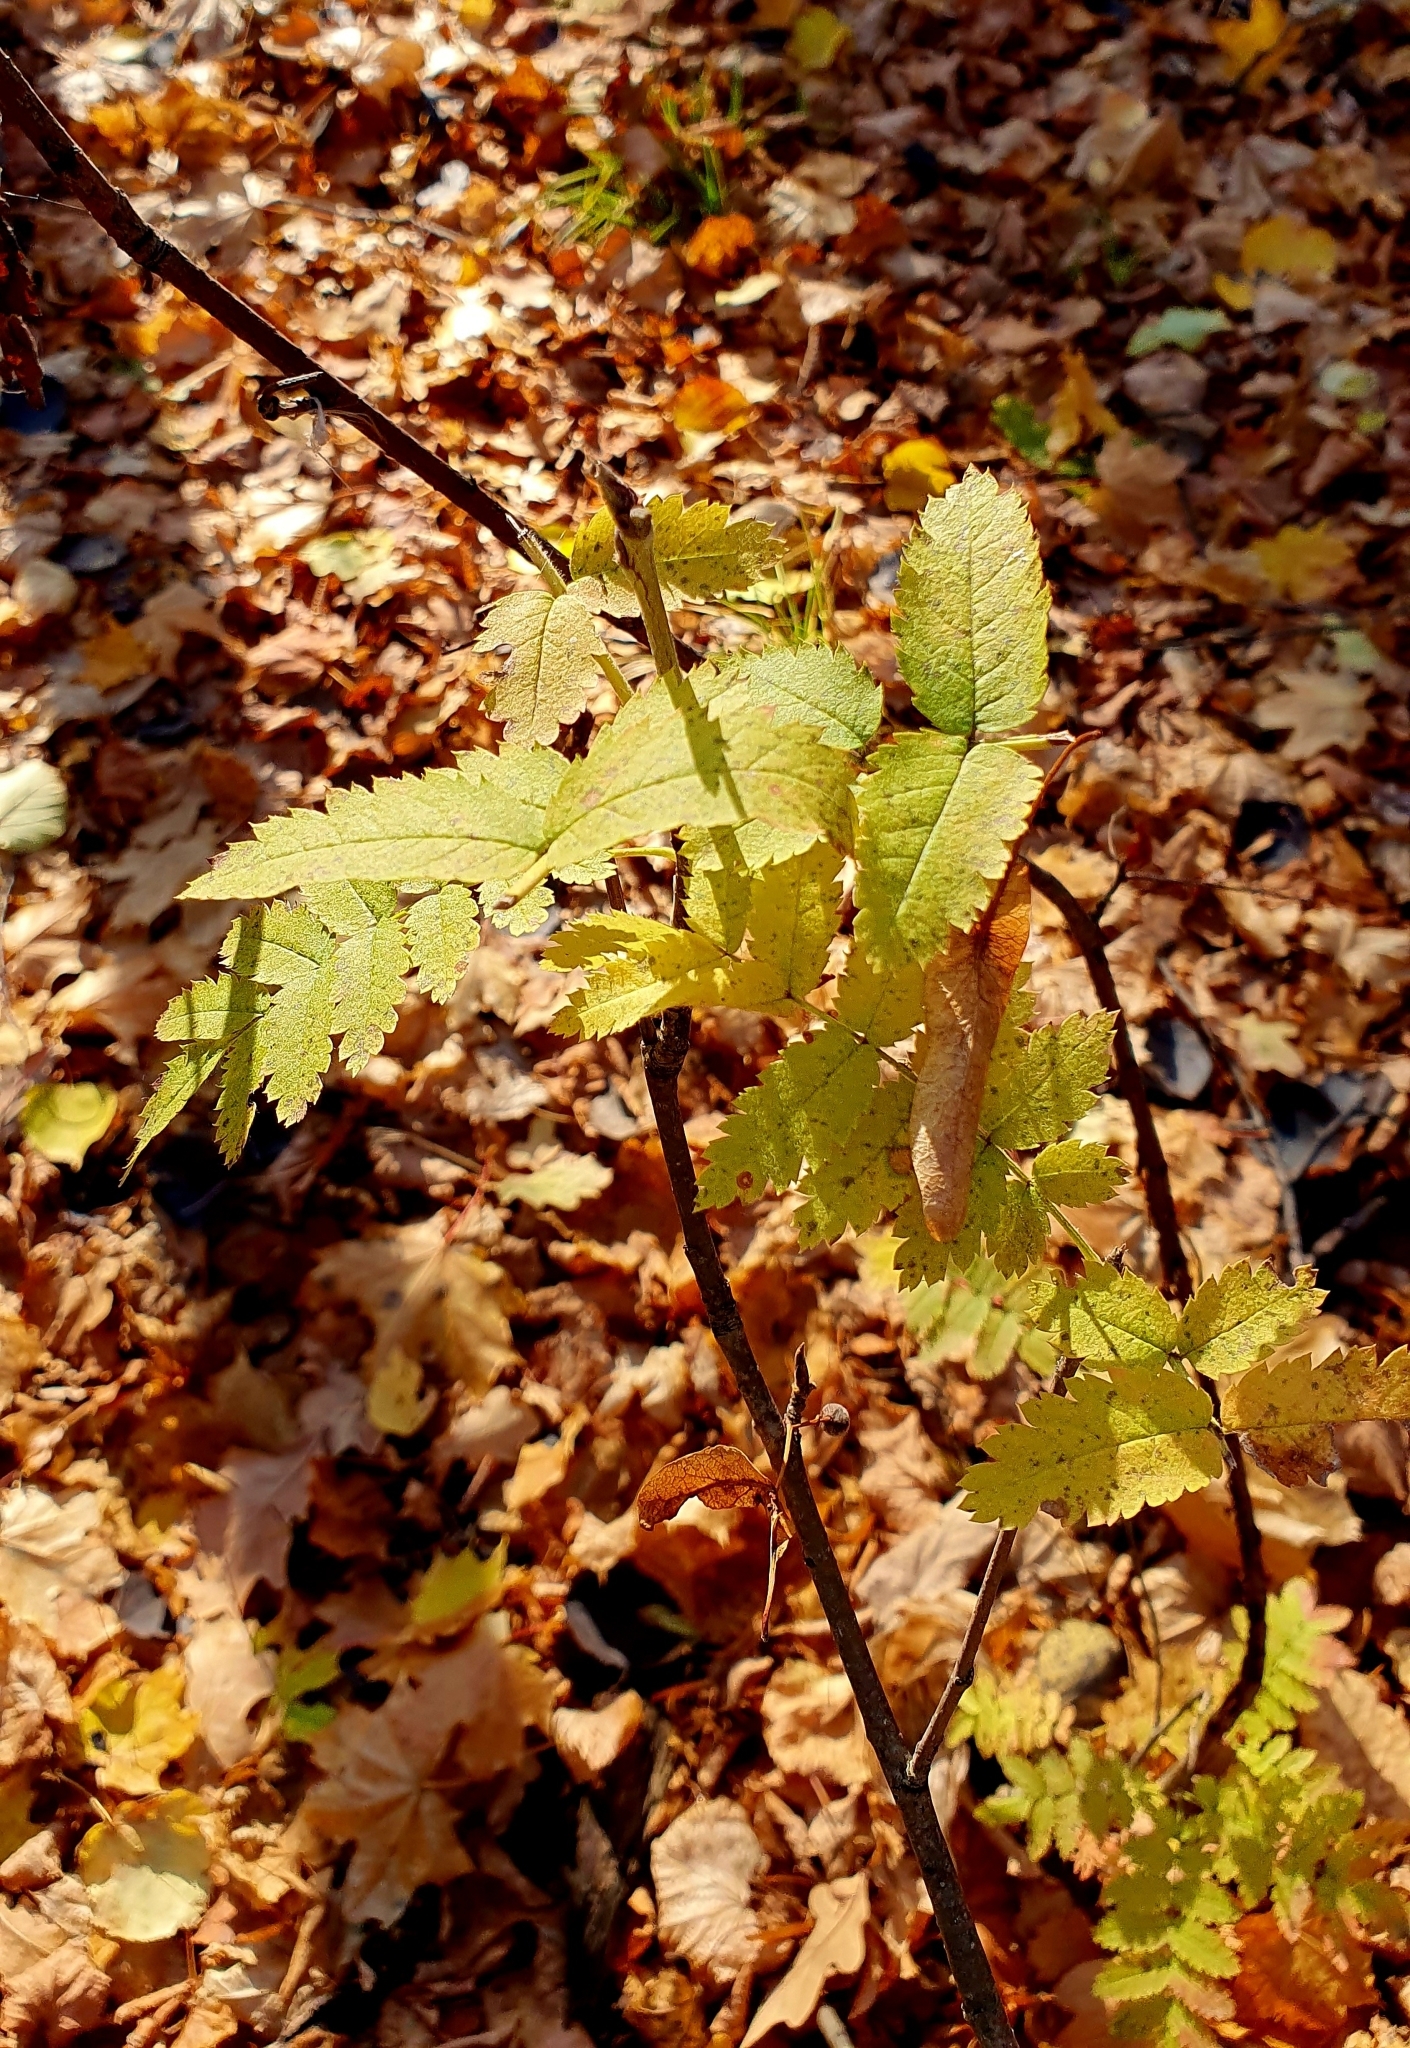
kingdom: Plantae
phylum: Tracheophyta
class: Magnoliopsida
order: Rosales
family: Rosaceae
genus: Sorbus
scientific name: Sorbus aucuparia
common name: Rowan
